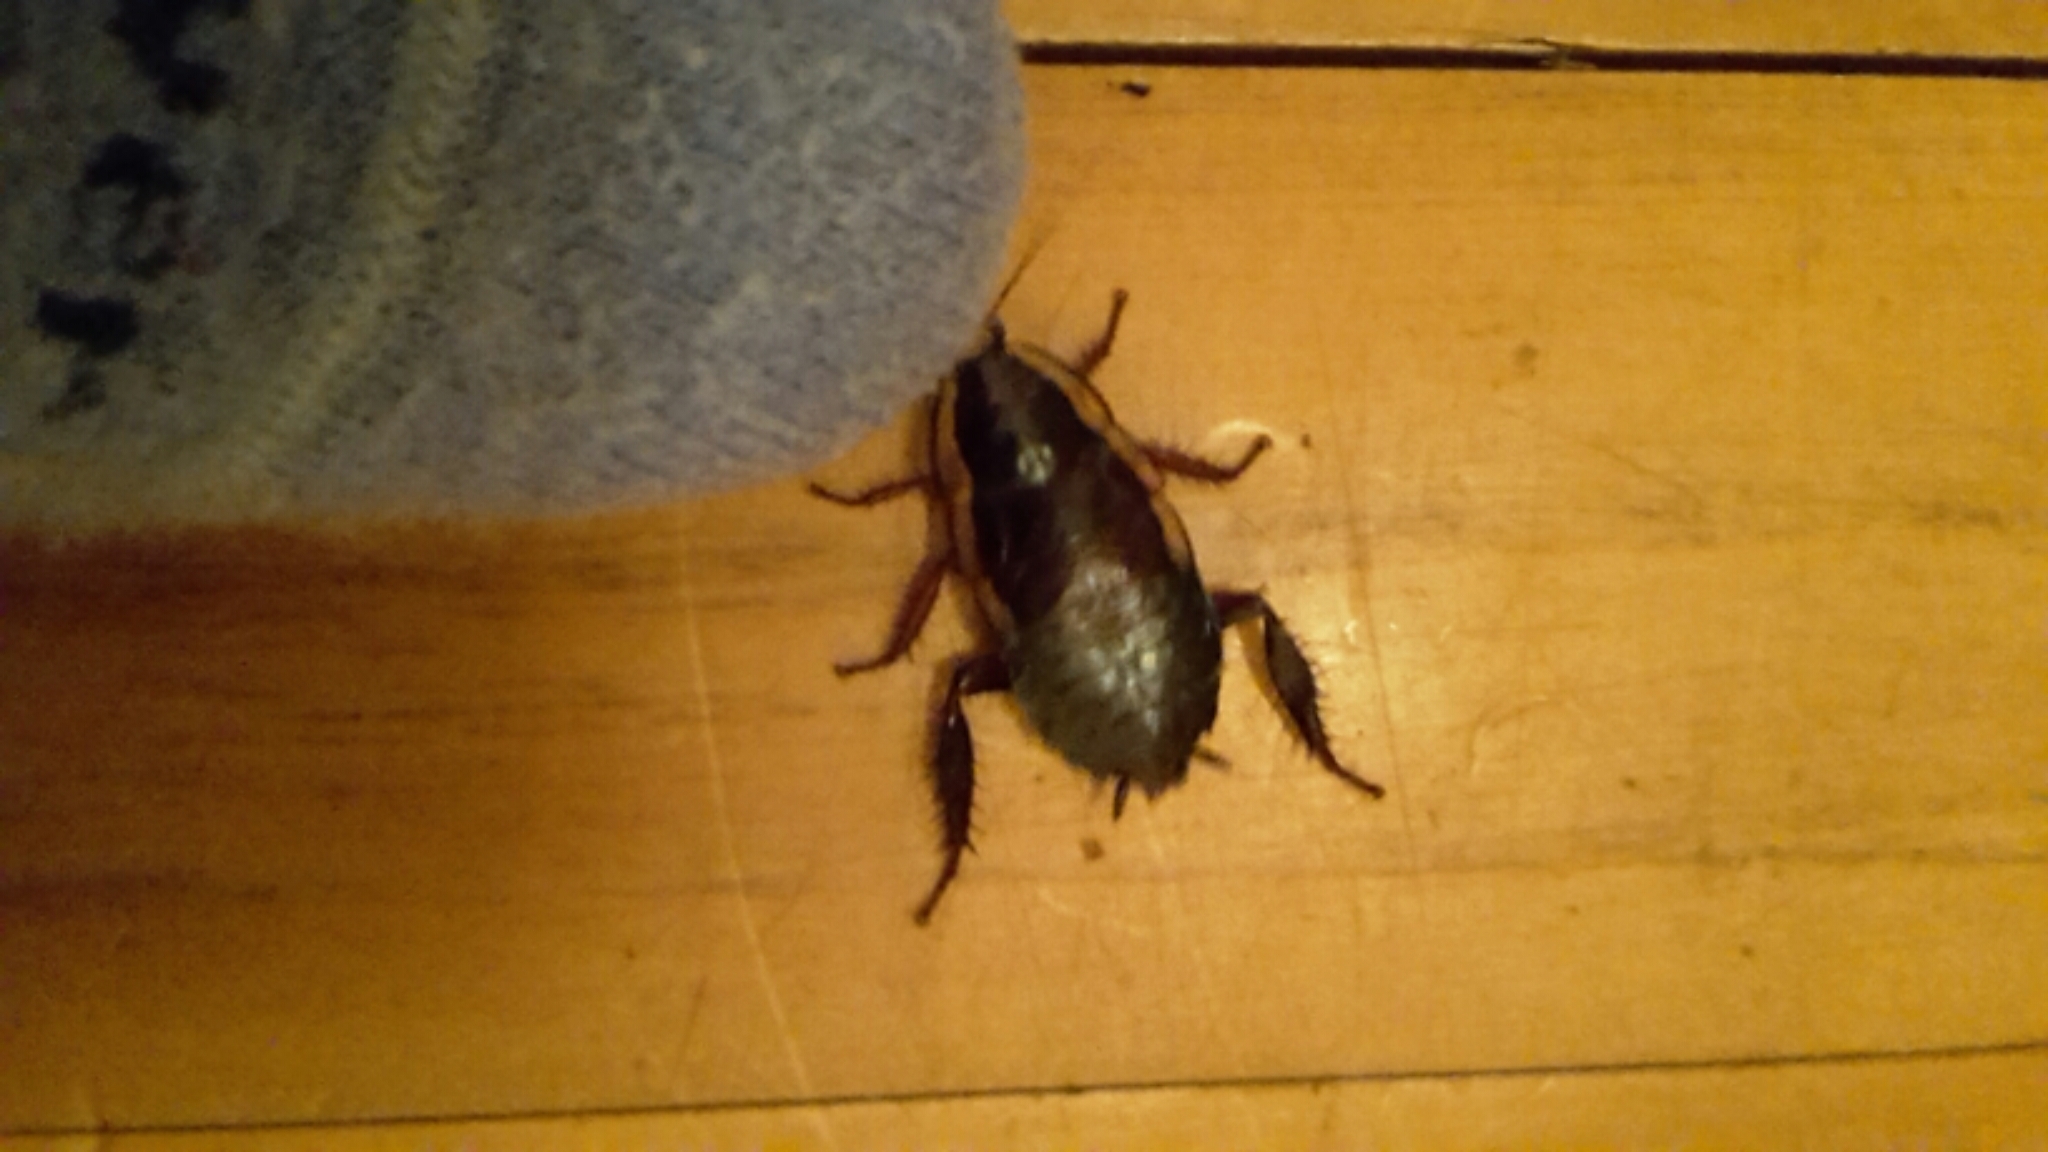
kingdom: Animalia
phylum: Arthropoda
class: Insecta
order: Blattodea
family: Blattidae
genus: Drymaplaneta
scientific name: Drymaplaneta semivitta
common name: Gisborne cockroach
